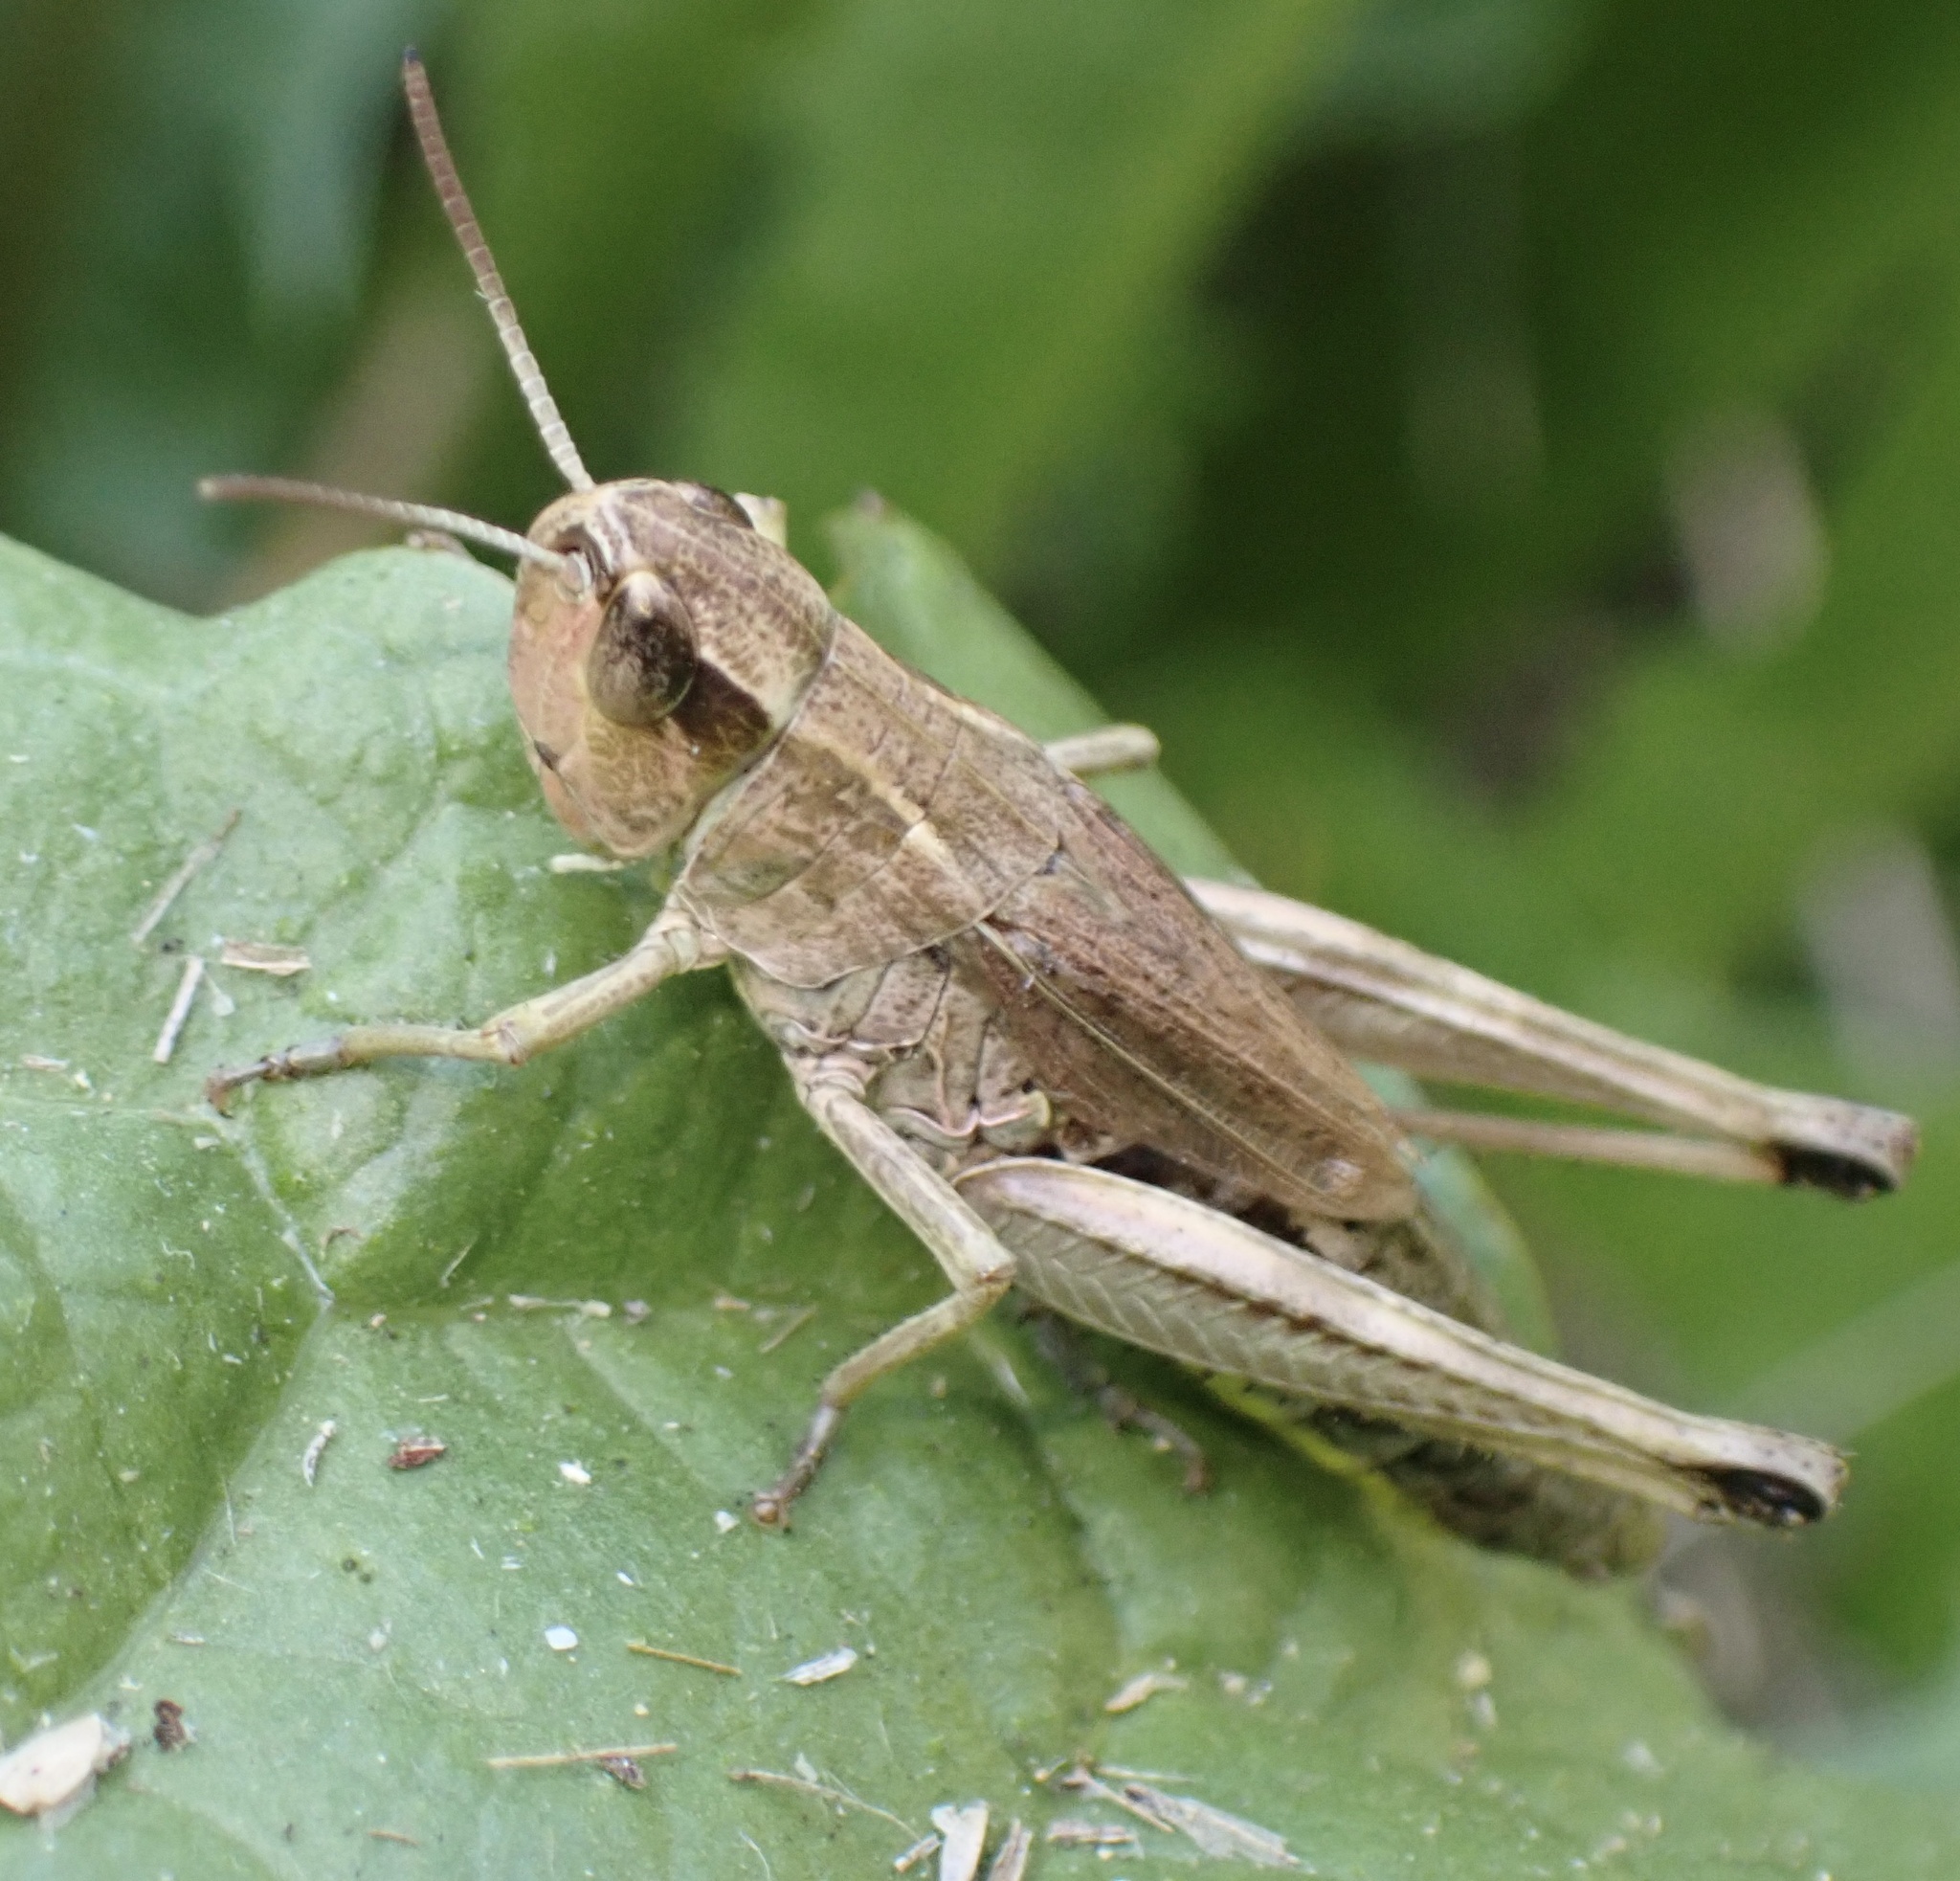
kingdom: Animalia
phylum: Arthropoda
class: Insecta
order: Orthoptera
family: Acrididae
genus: Pseudochorthippus
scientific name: Pseudochorthippus parallelus
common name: Meadow grasshopper
